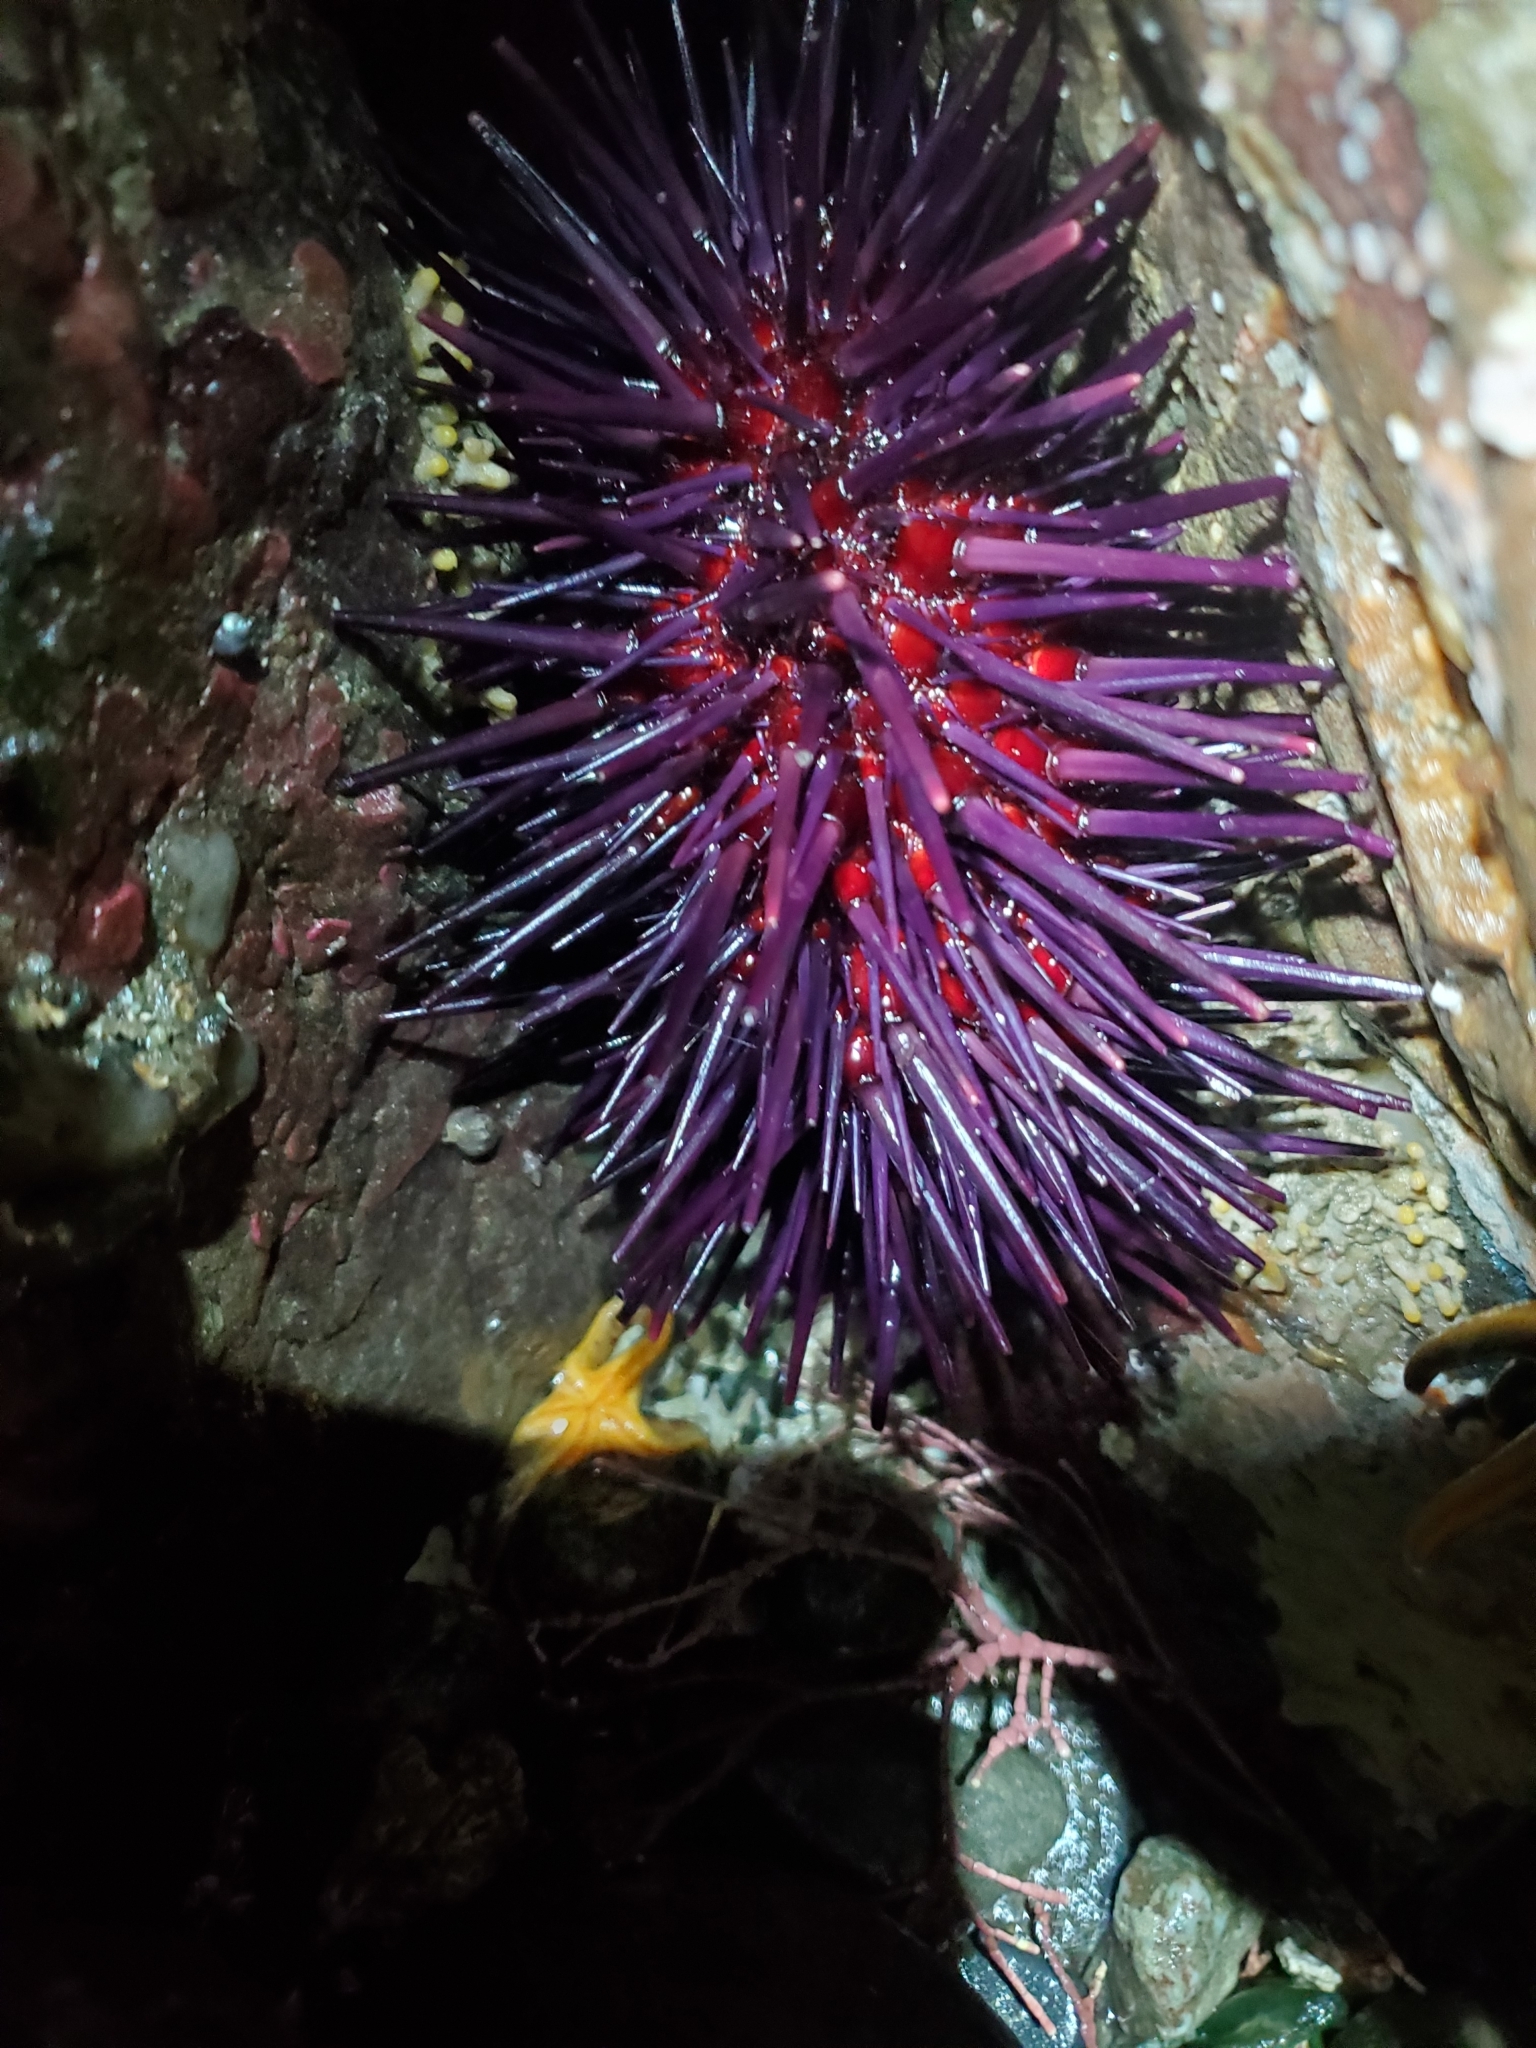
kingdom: Animalia
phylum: Echinodermata
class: Echinoidea
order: Camarodonta
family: Strongylocentrotidae
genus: Mesocentrotus
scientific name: Mesocentrotus franciscanus
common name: Red sea urchin
